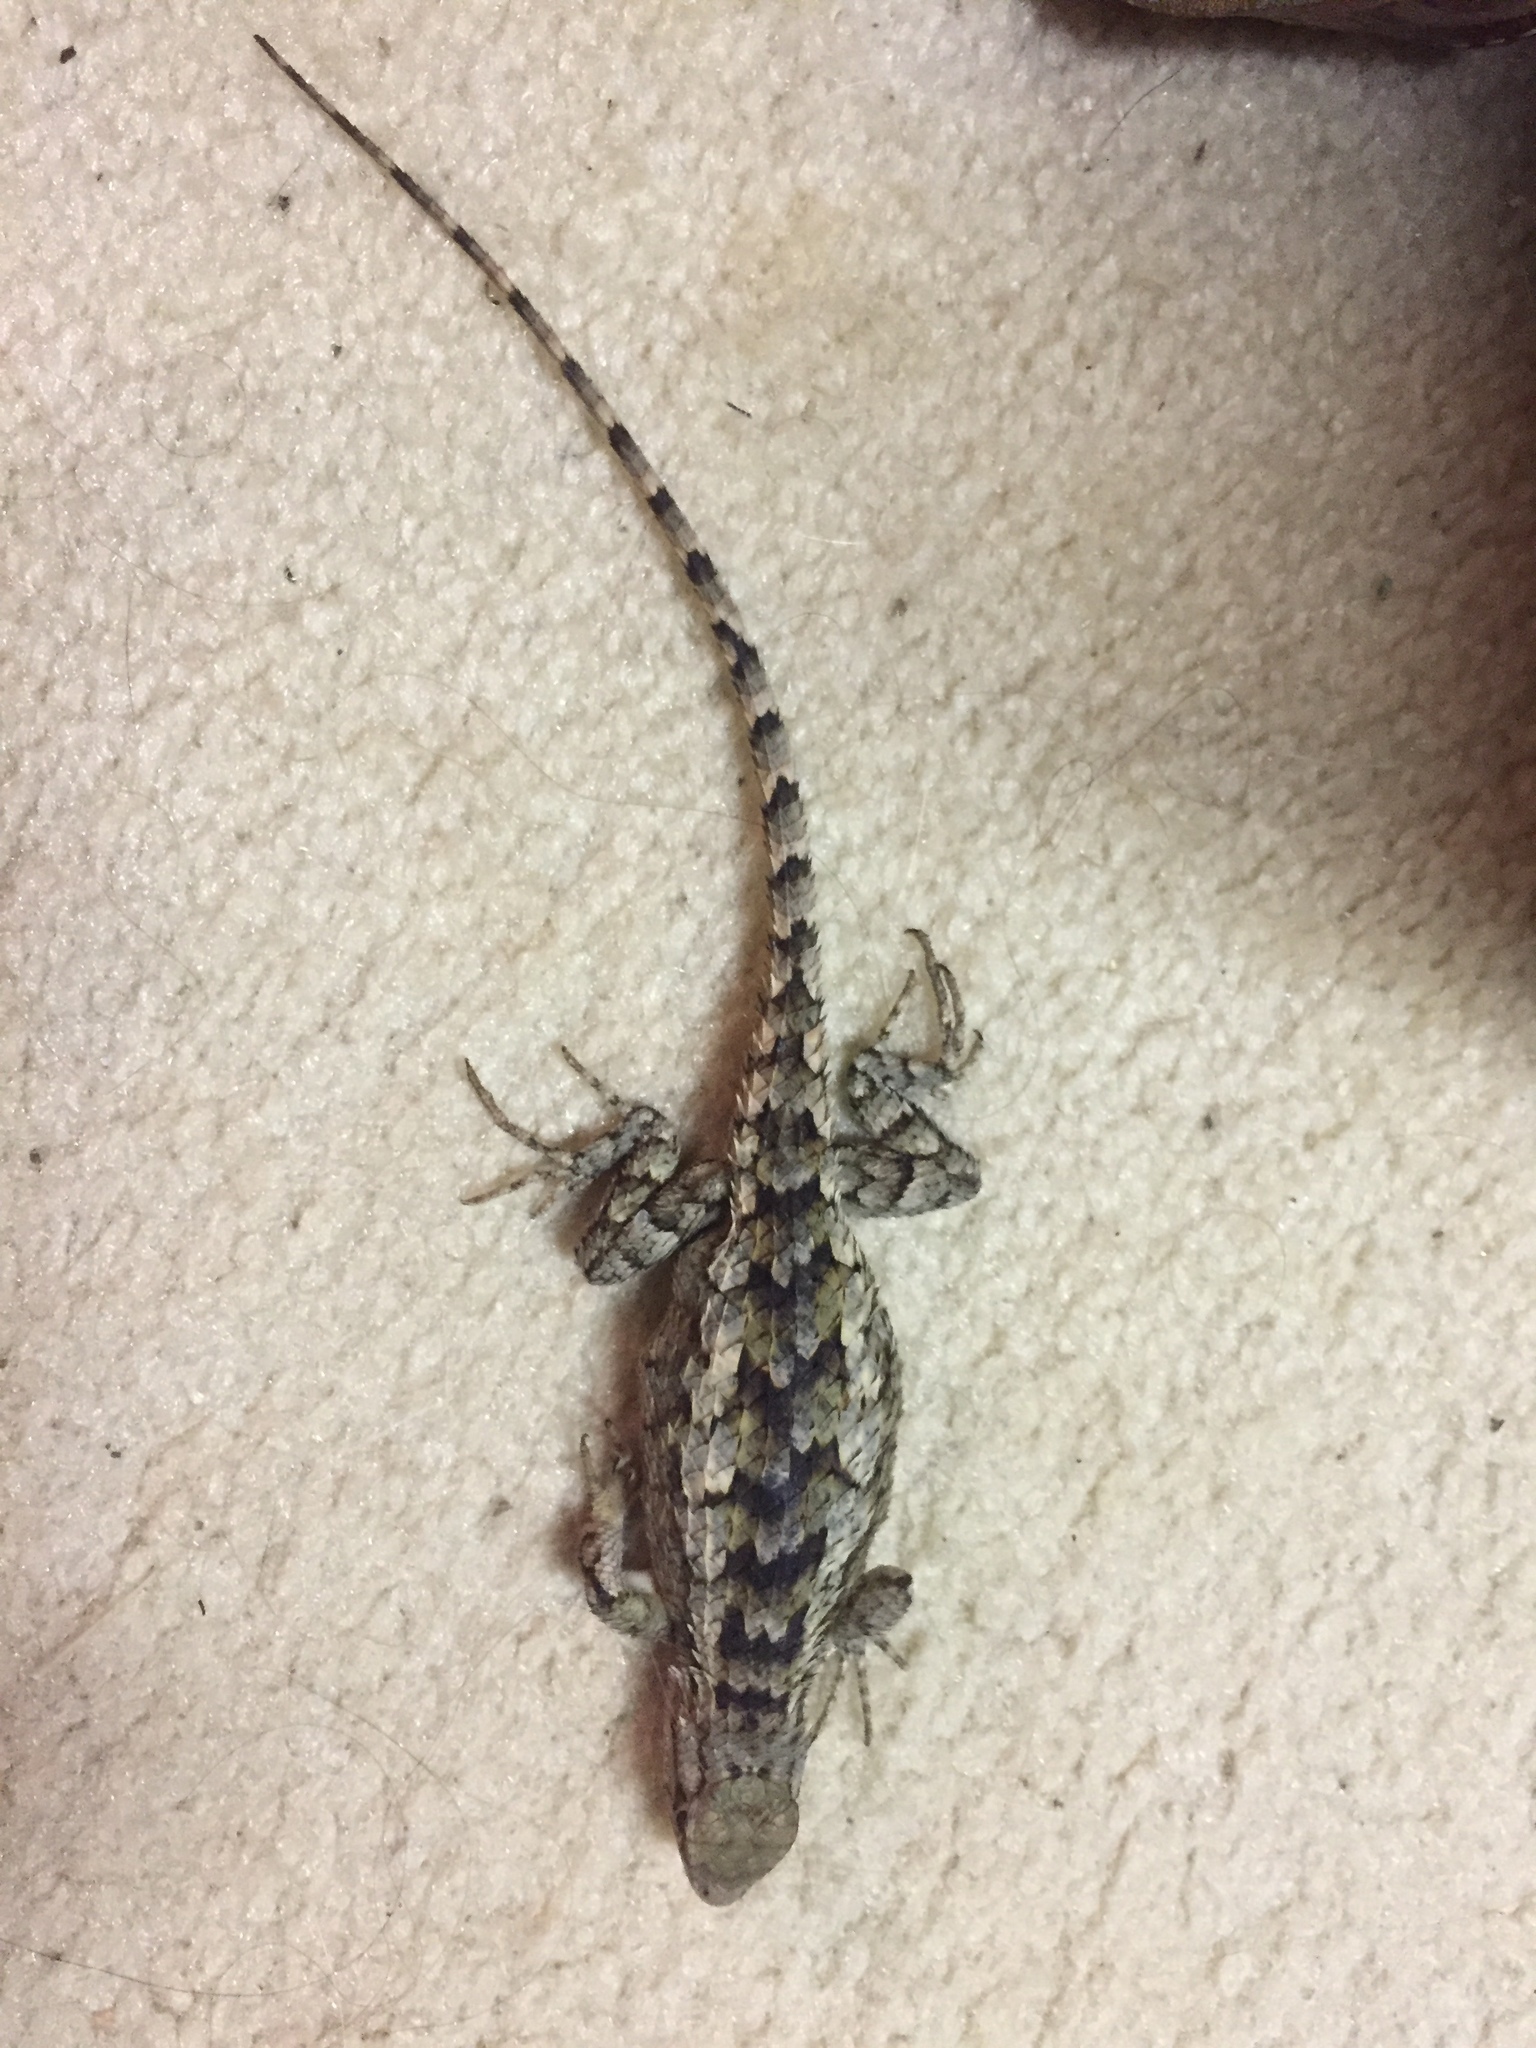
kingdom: Animalia
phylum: Chordata
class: Squamata
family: Phrynosomatidae
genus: Sceloporus
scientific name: Sceloporus olivaceus
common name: Texas spiny lizard
